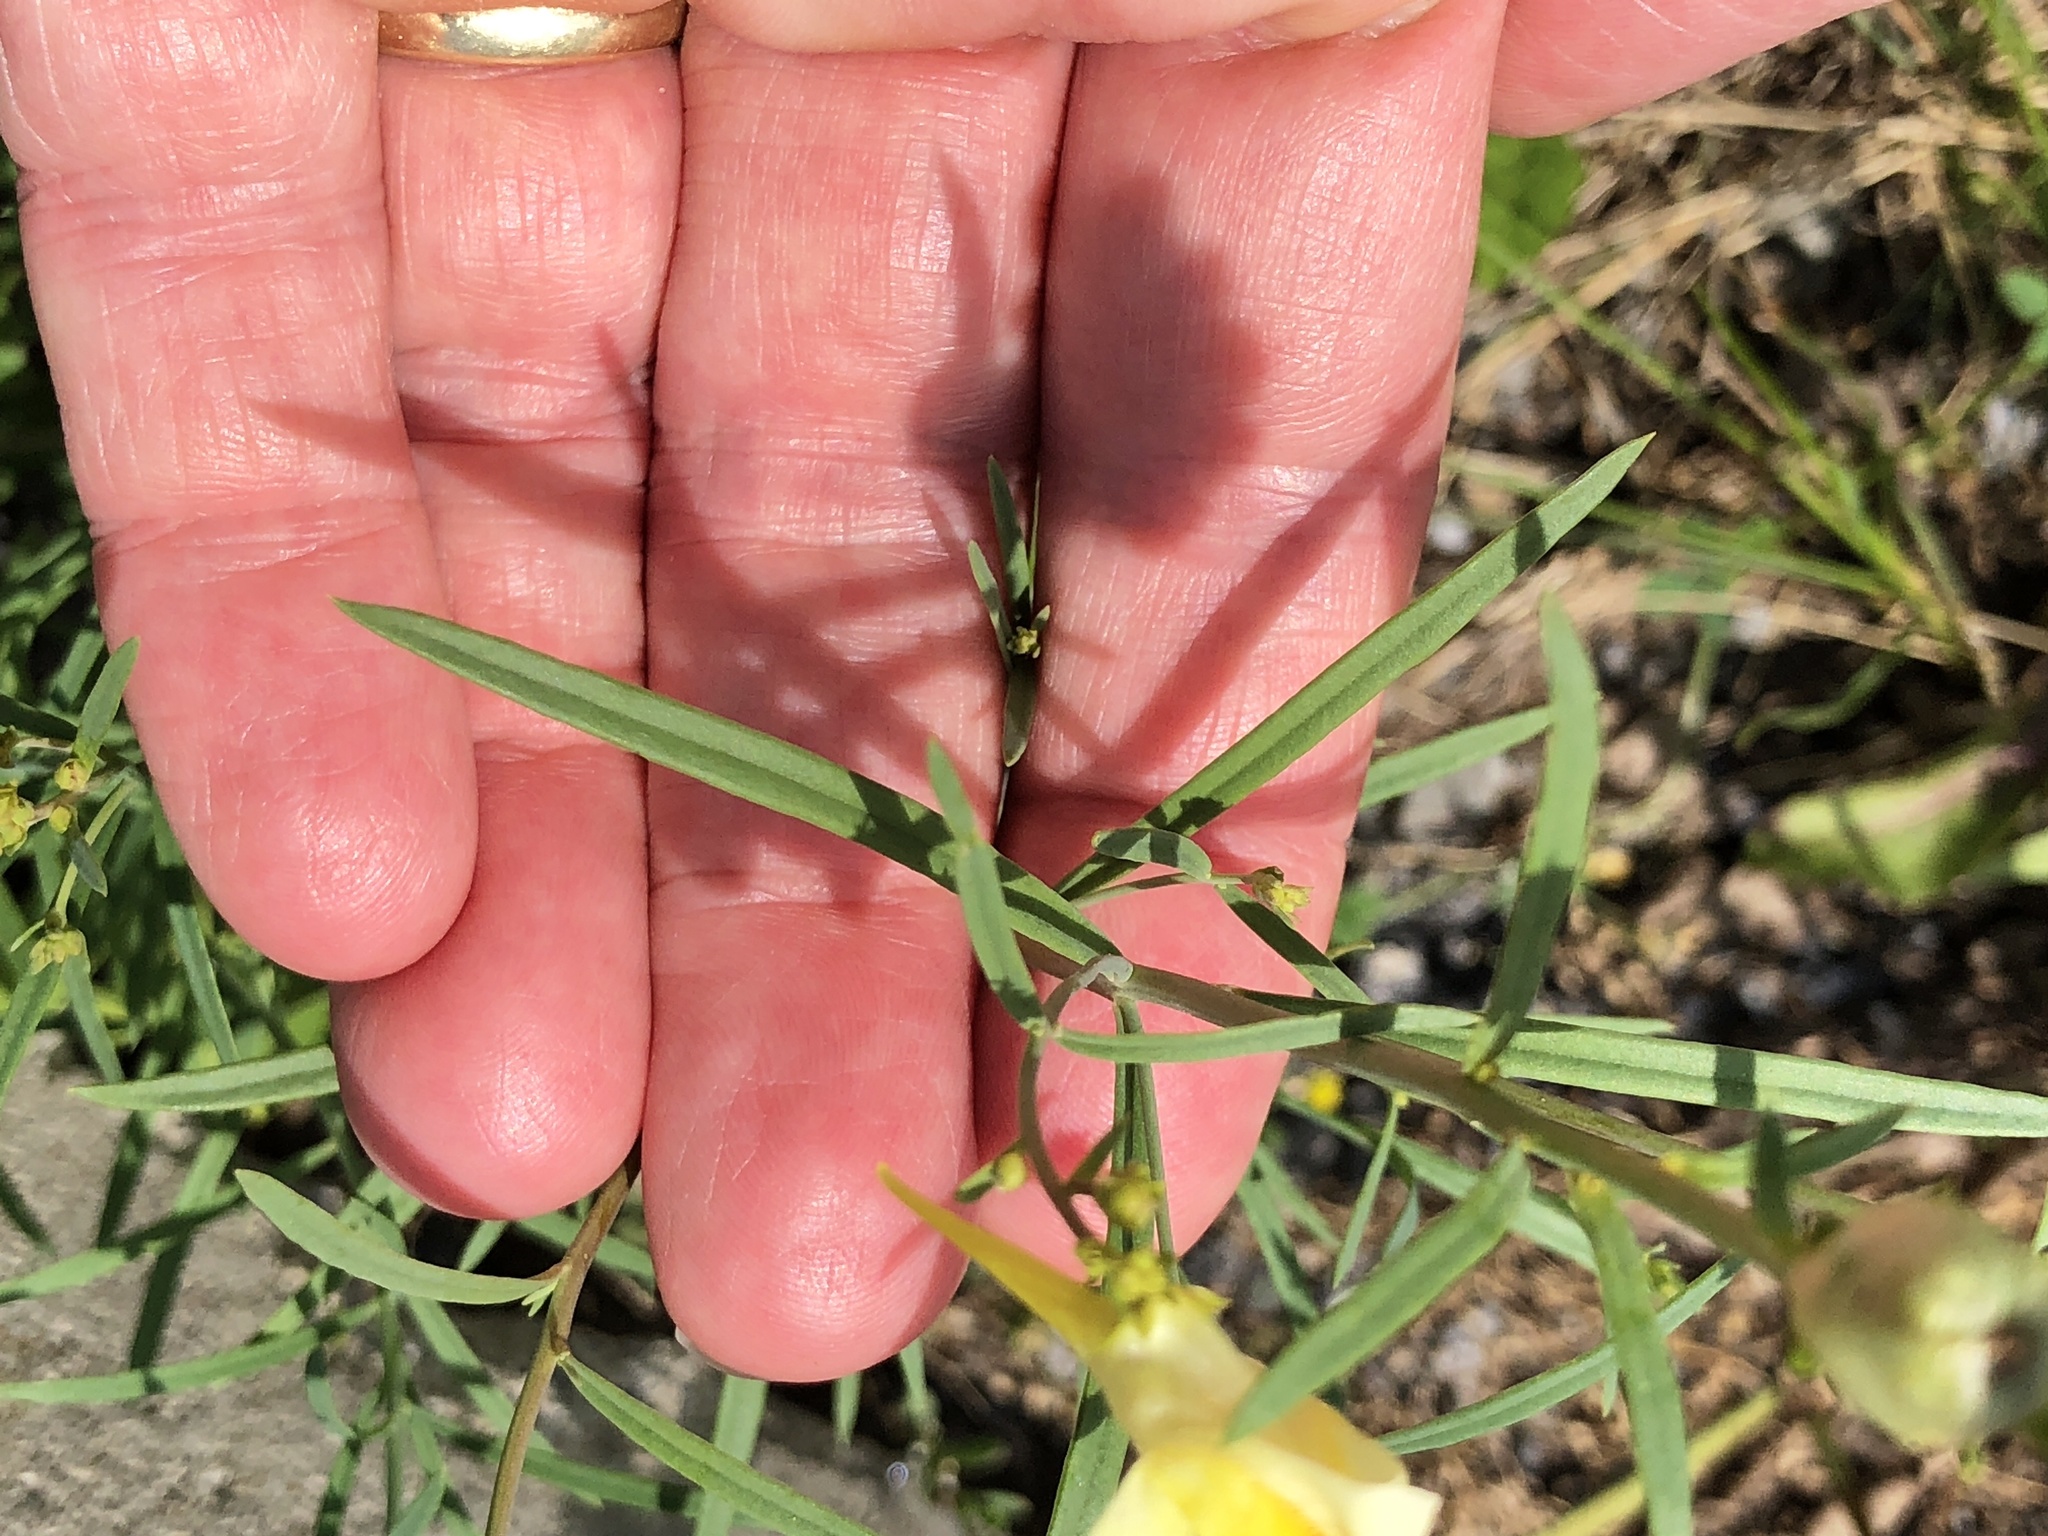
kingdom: Plantae
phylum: Tracheophyta
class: Magnoliopsida
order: Lamiales
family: Plantaginaceae
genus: Linaria
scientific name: Linaria vulgaris
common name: Butter and eggs
